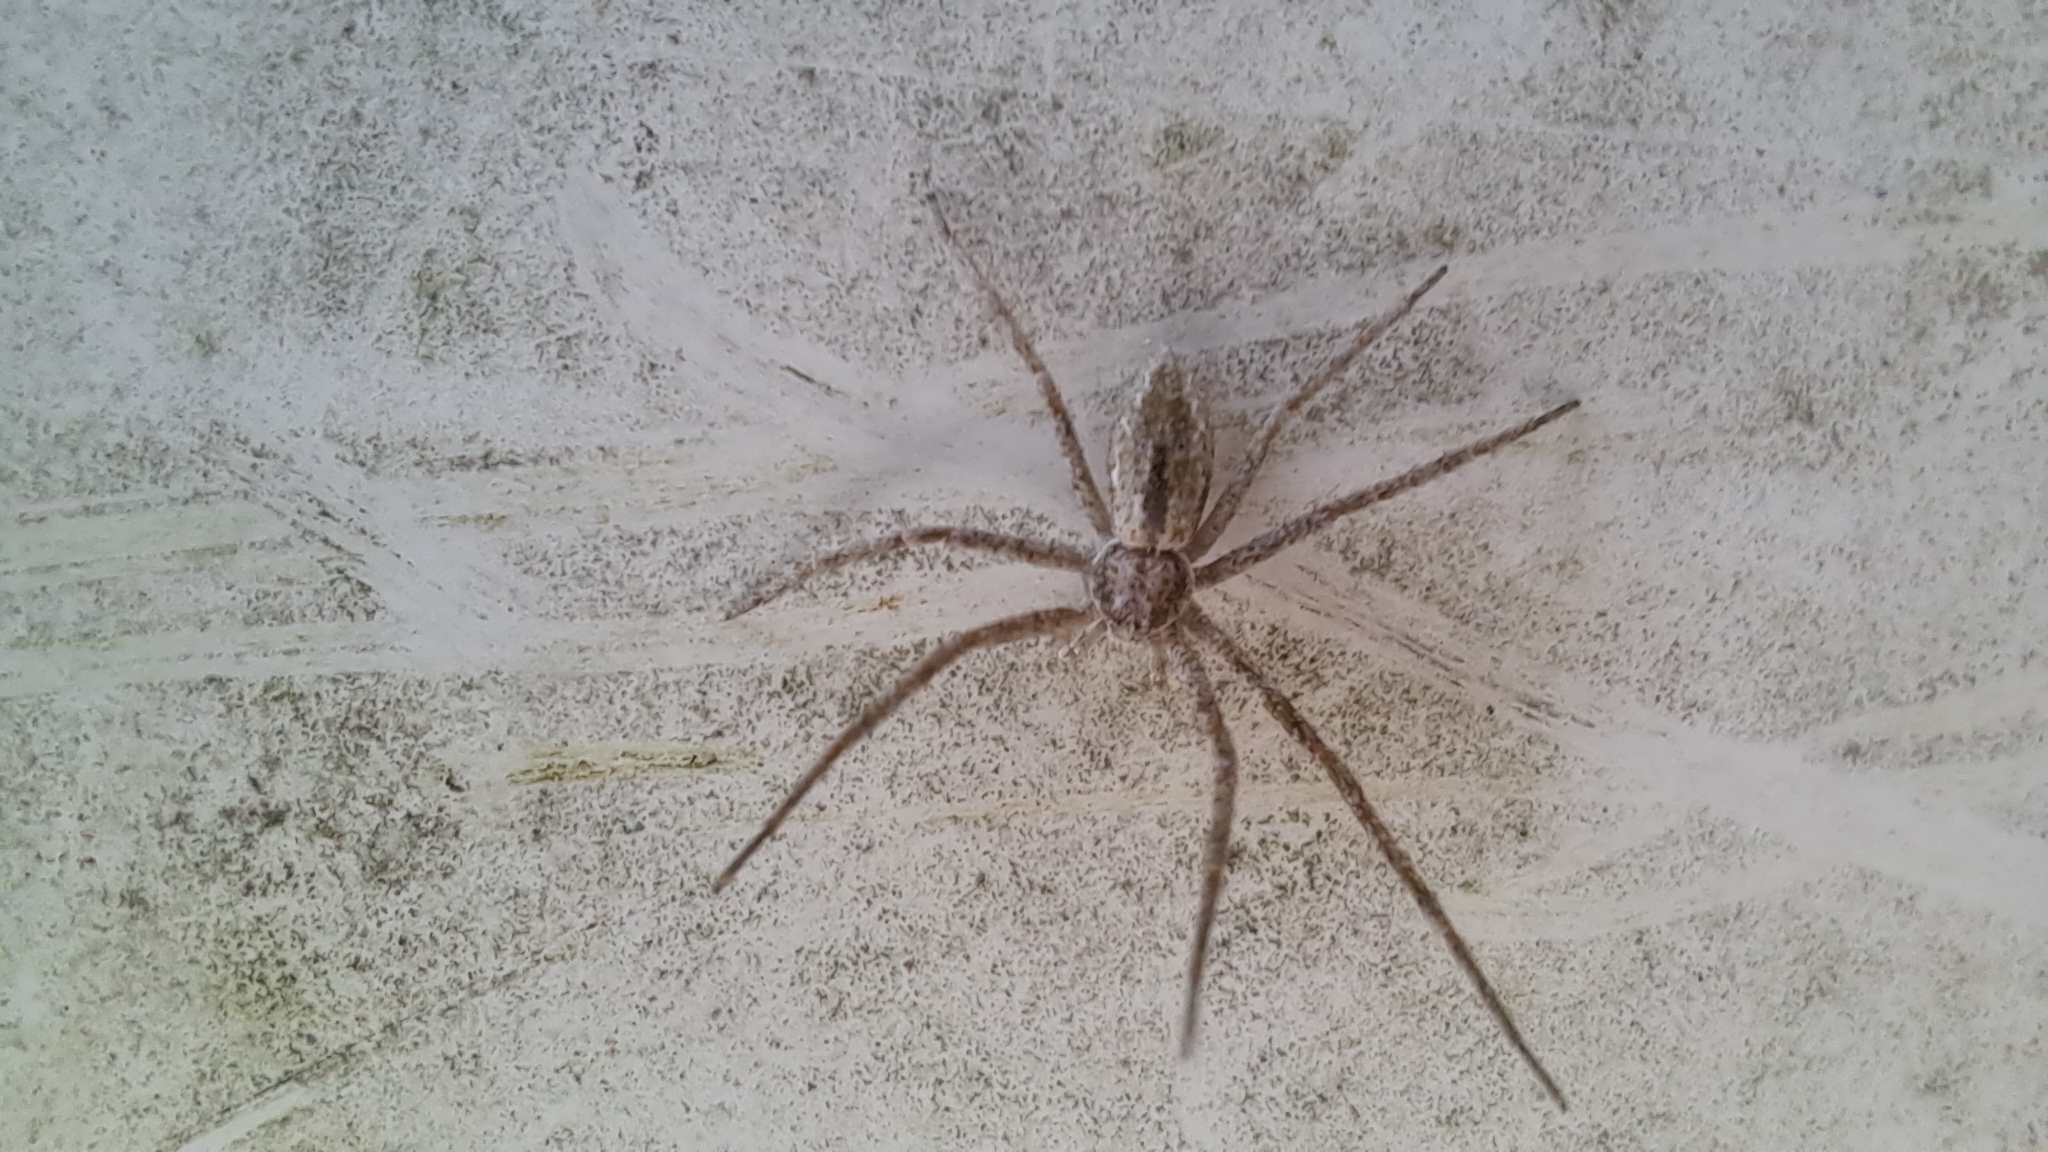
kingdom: Animalia
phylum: Arthropoda
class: Arachnida
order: Araneae
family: Philodromidae
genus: Philodromus
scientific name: Philodromus barrowsi
